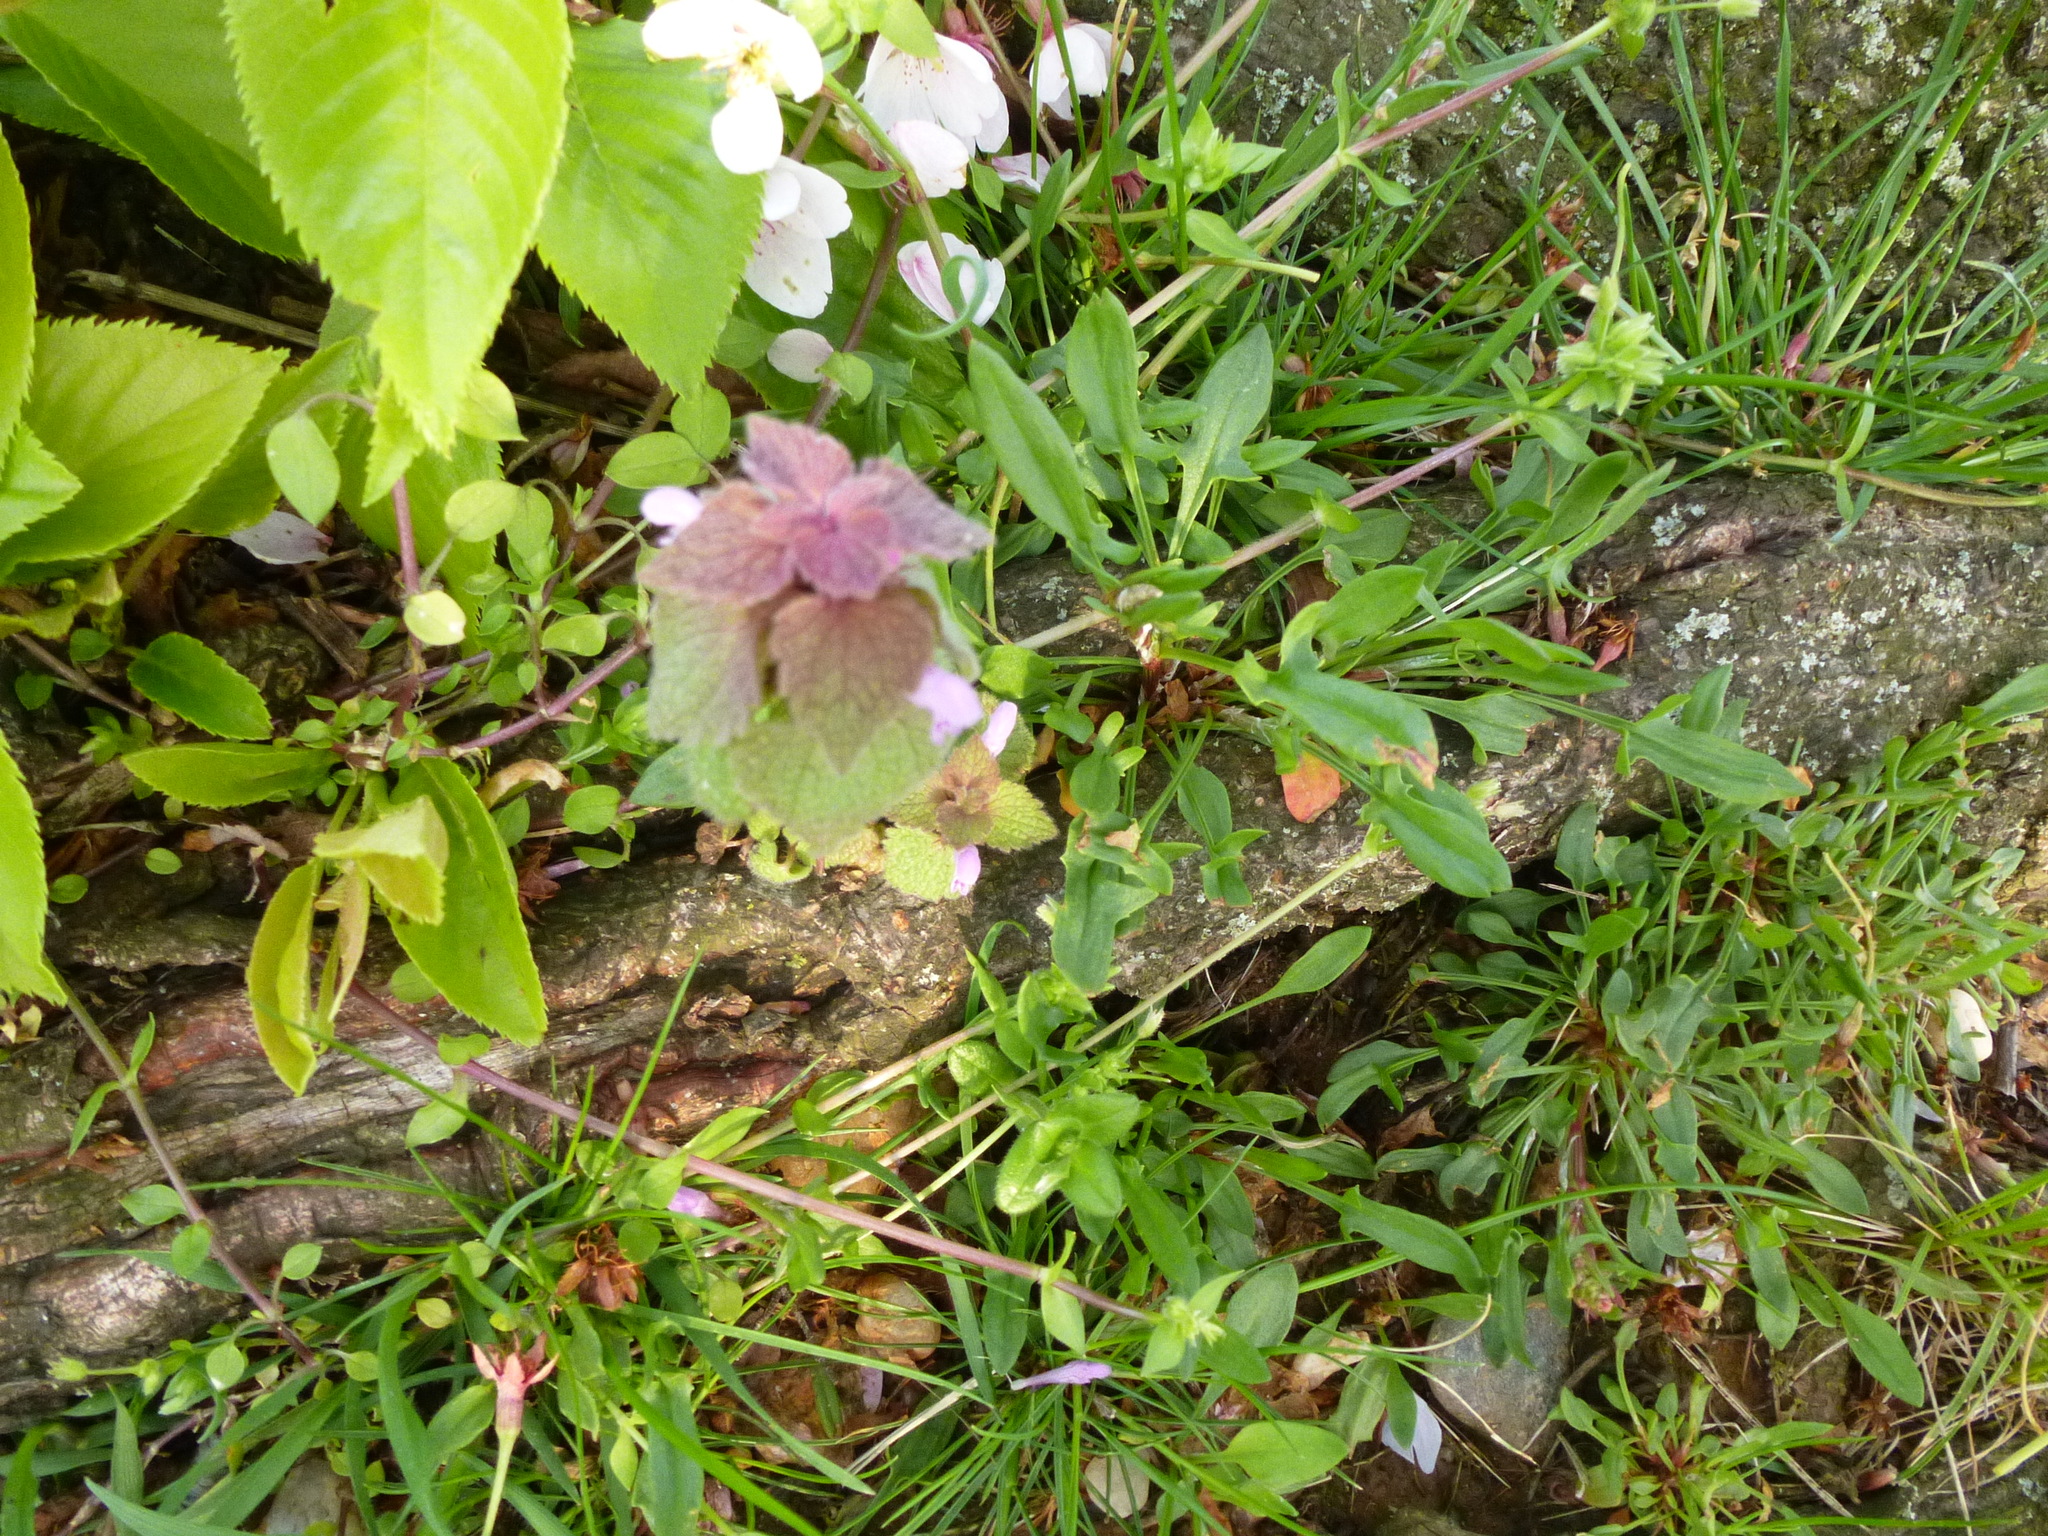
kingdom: Plantae
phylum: Tracheophyta
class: Magnoliopsida
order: Lamiales
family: Lamiaceae
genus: Lamium
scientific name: Lamium purpureum
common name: Red dead-nettle
